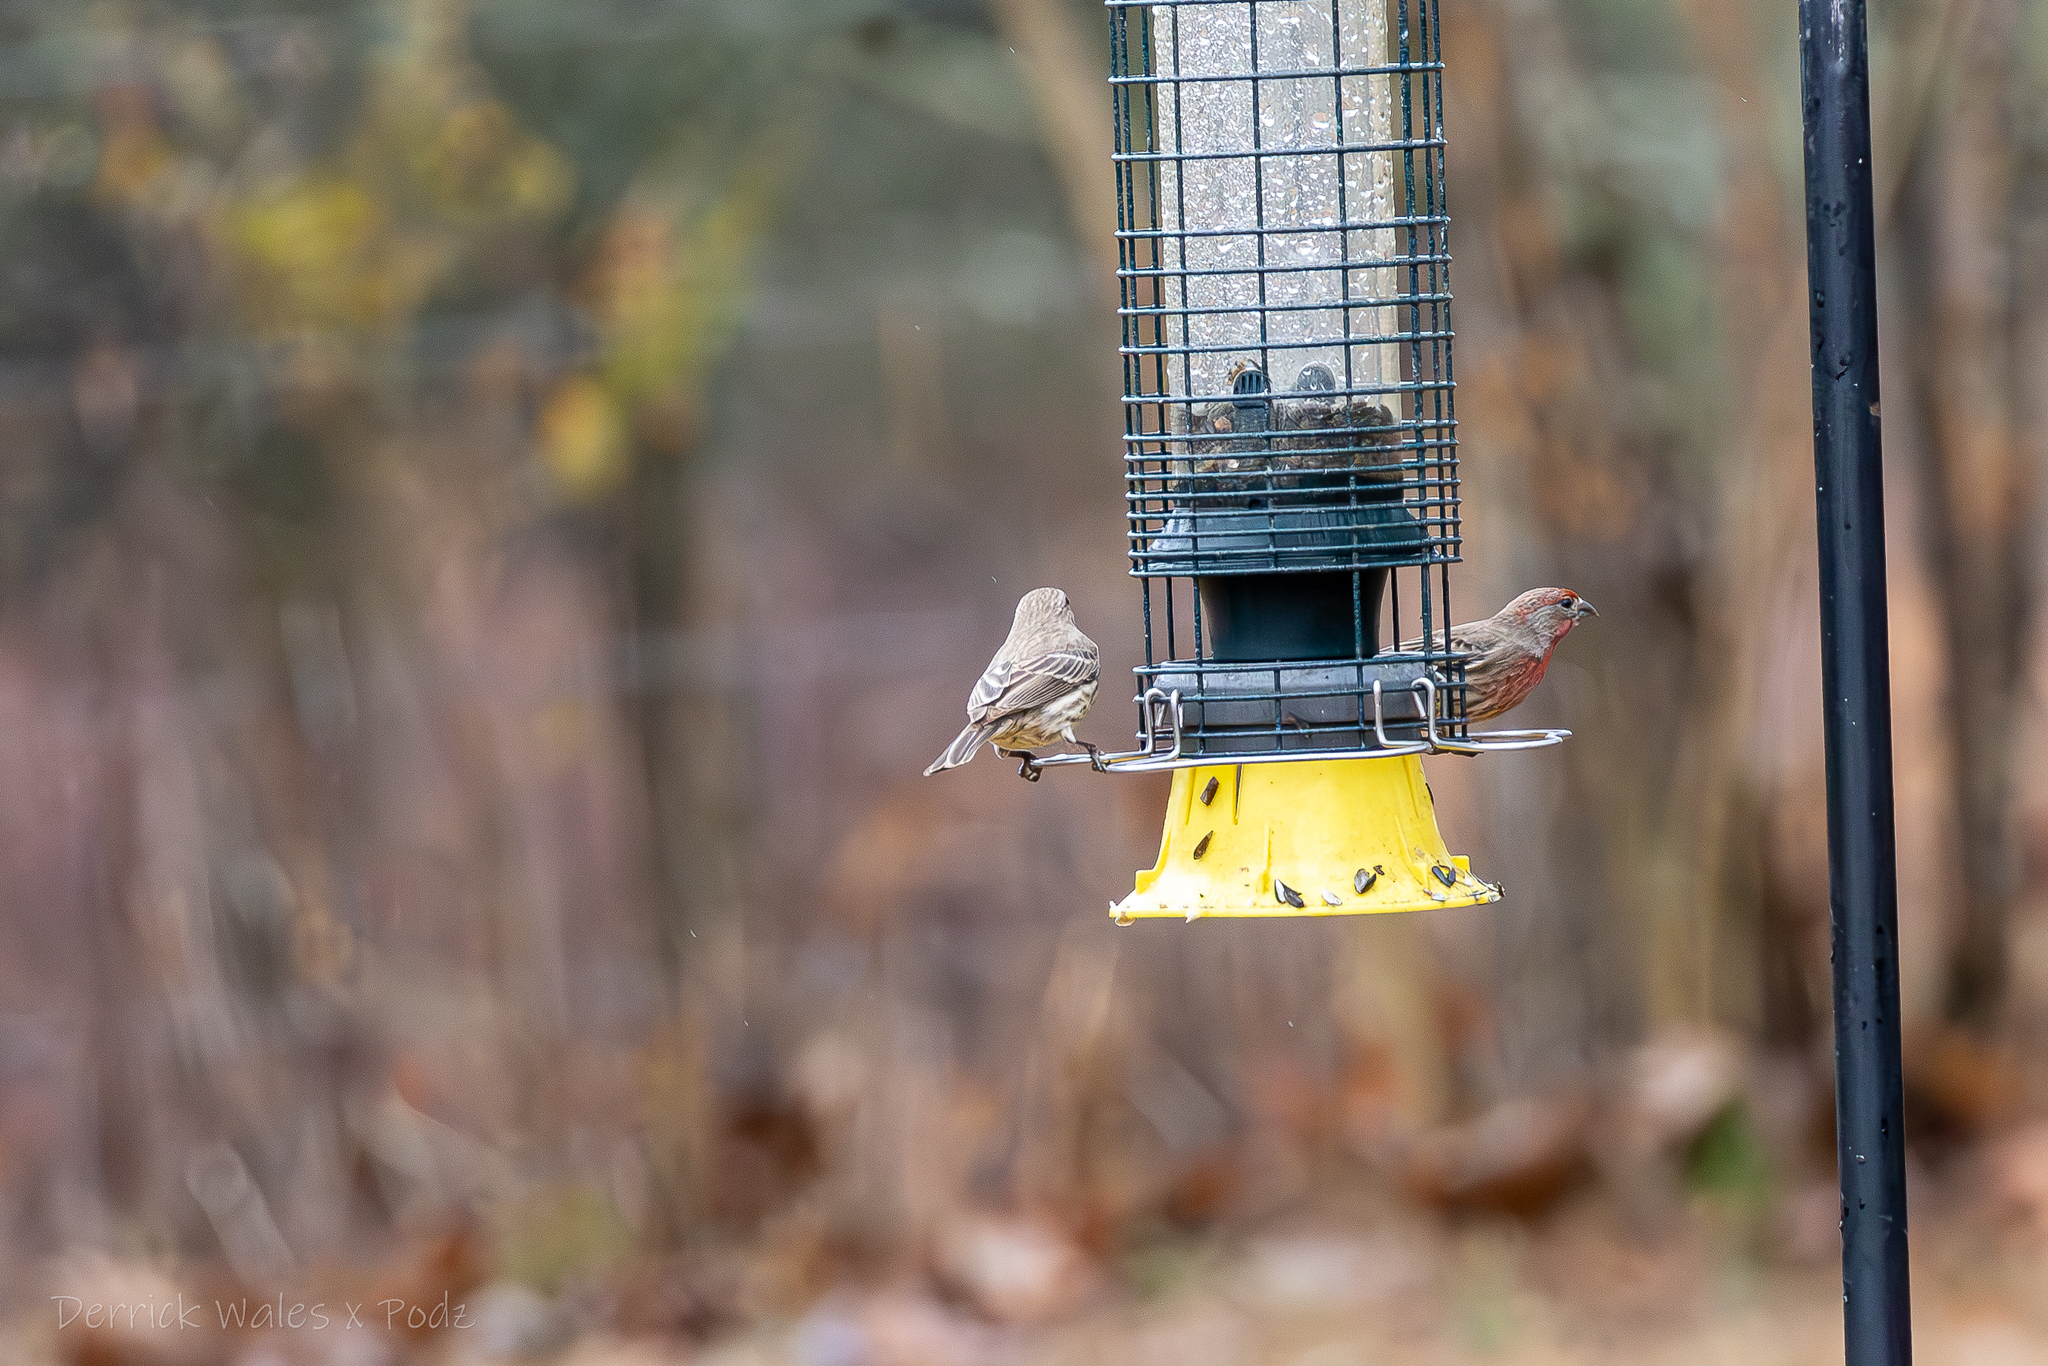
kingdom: Animalia
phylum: Chordata
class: Aves
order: Passeriformes
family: Fringillidae
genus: Haemorhous
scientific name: Haemorhous mexicanus
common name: House finch
